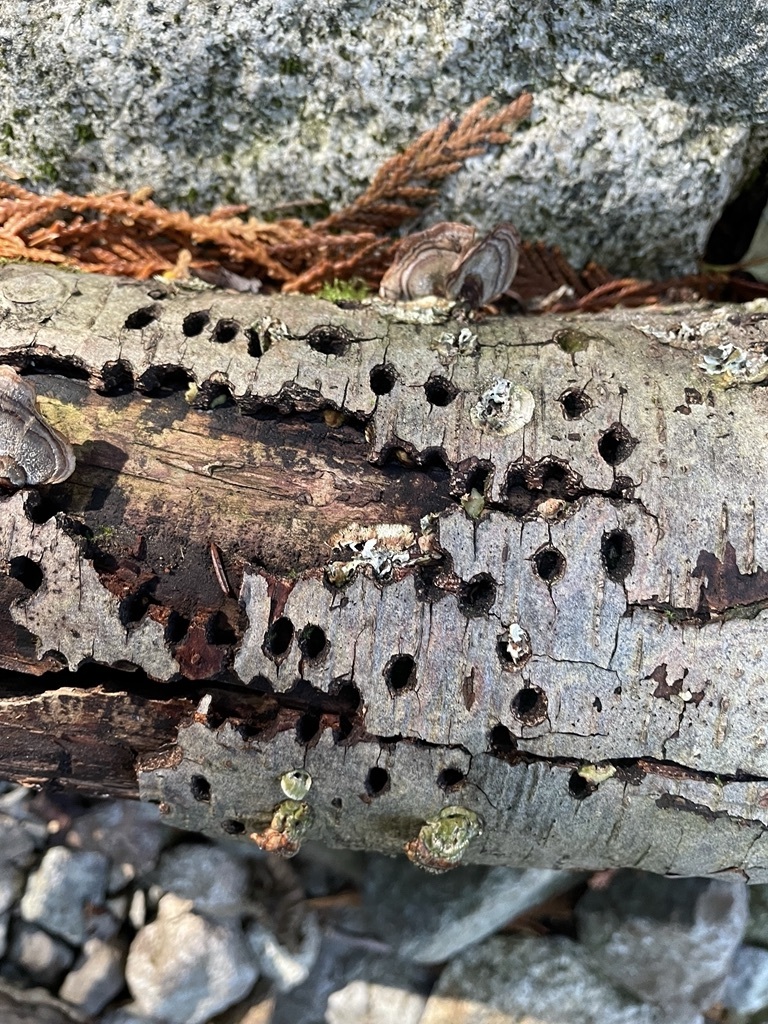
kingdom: Animalia
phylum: Chordata
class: Aves
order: Piciformes
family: Picidae
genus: Sphyrapicus
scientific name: Sphyrapicus
